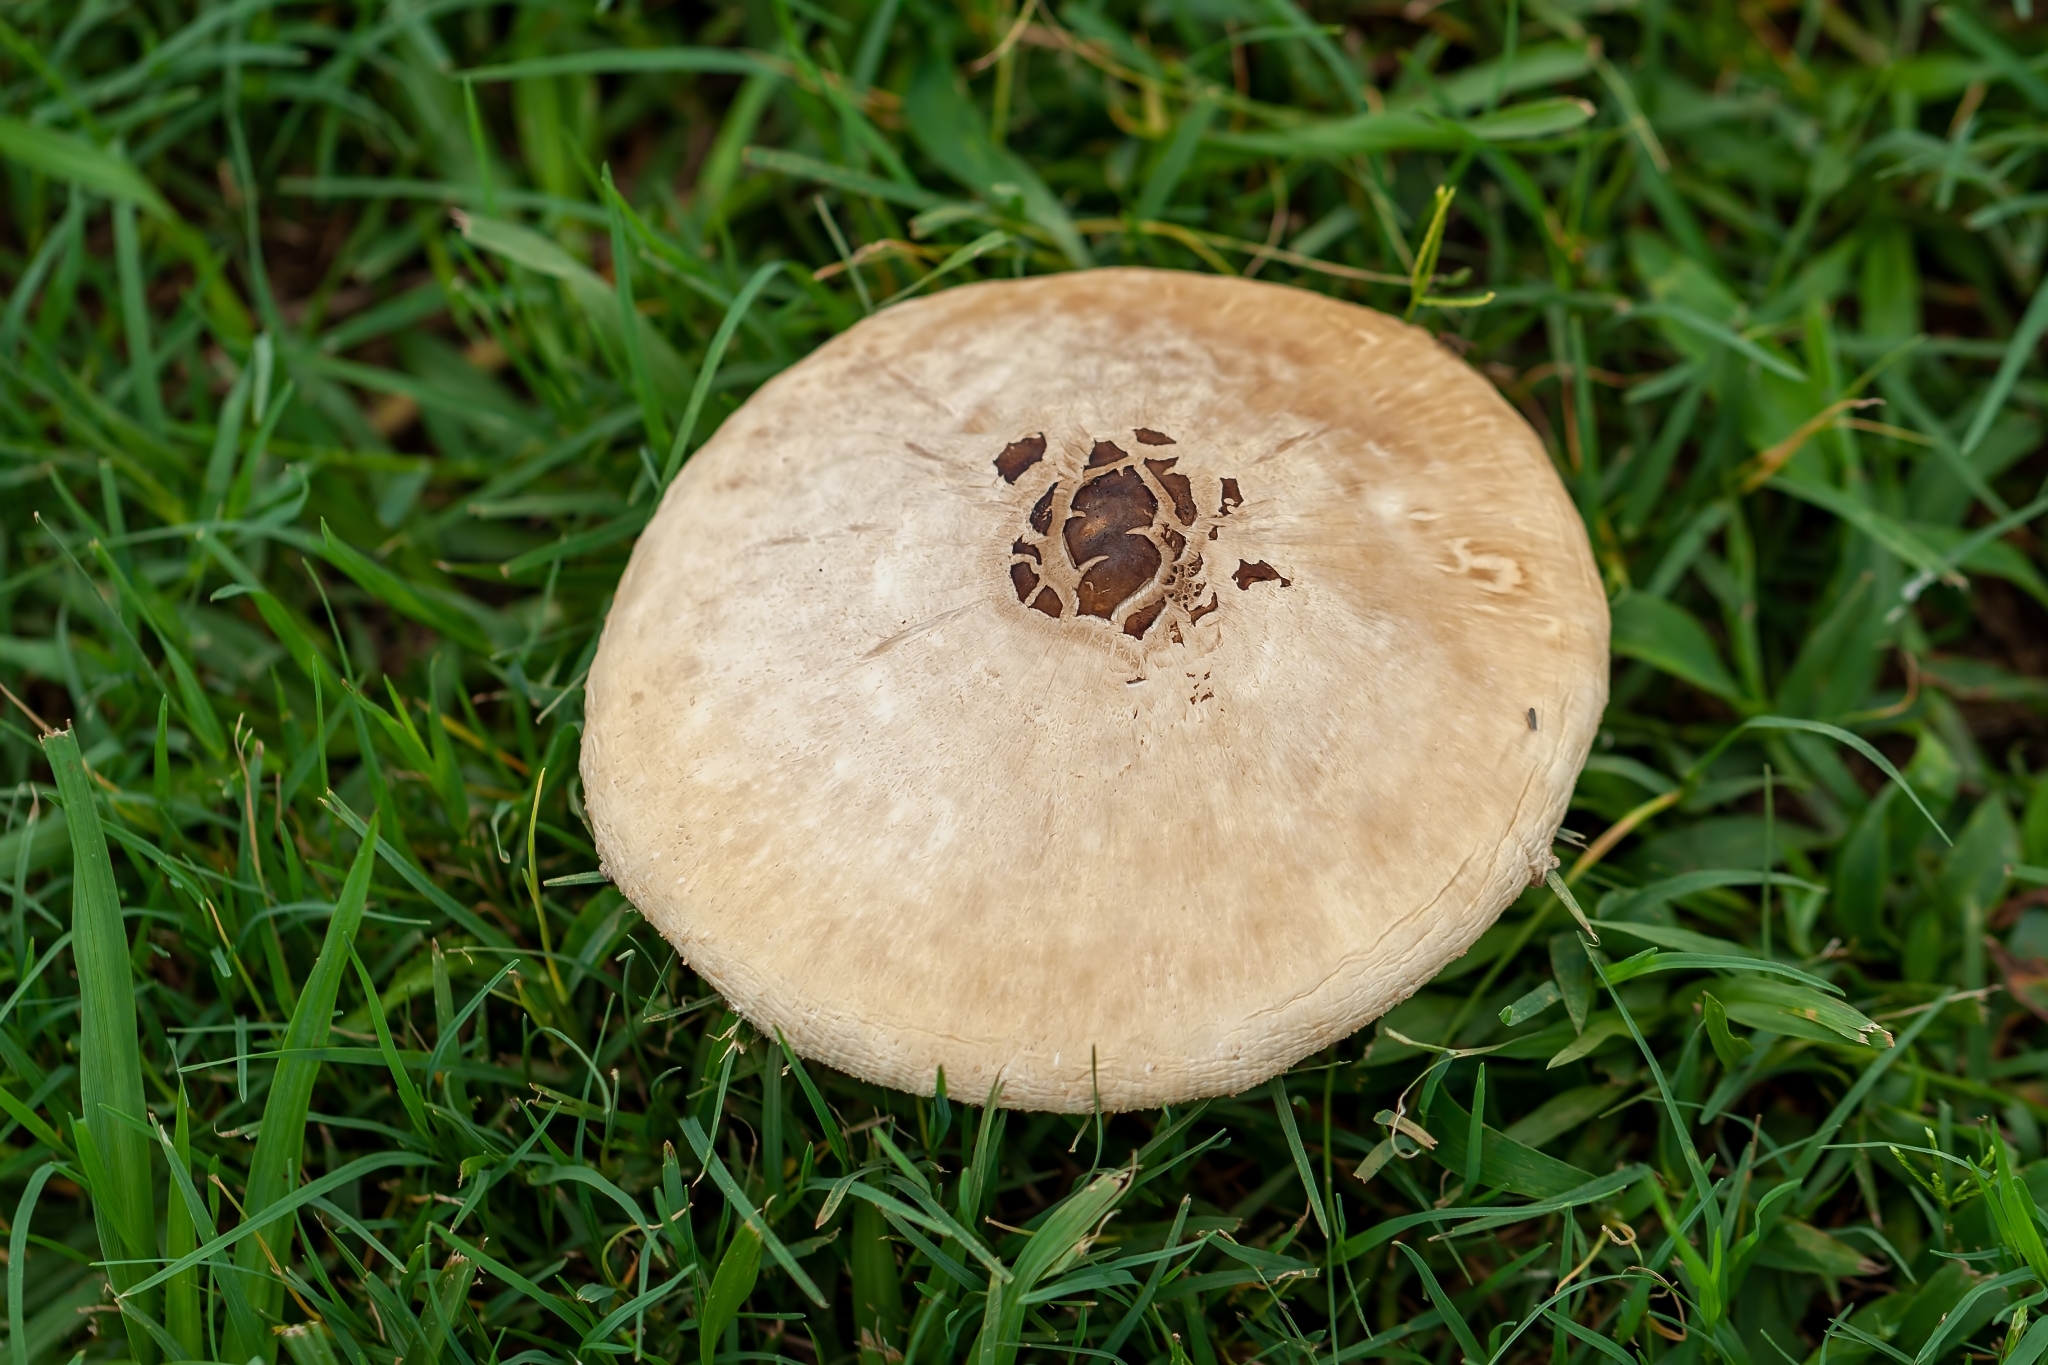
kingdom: Fungi
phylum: Basidiomycota
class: Agaricomycetes
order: Agaricales
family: Agaricaceae
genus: Chlorophyllum
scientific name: Chlorophyllum molybdites
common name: False parasol
